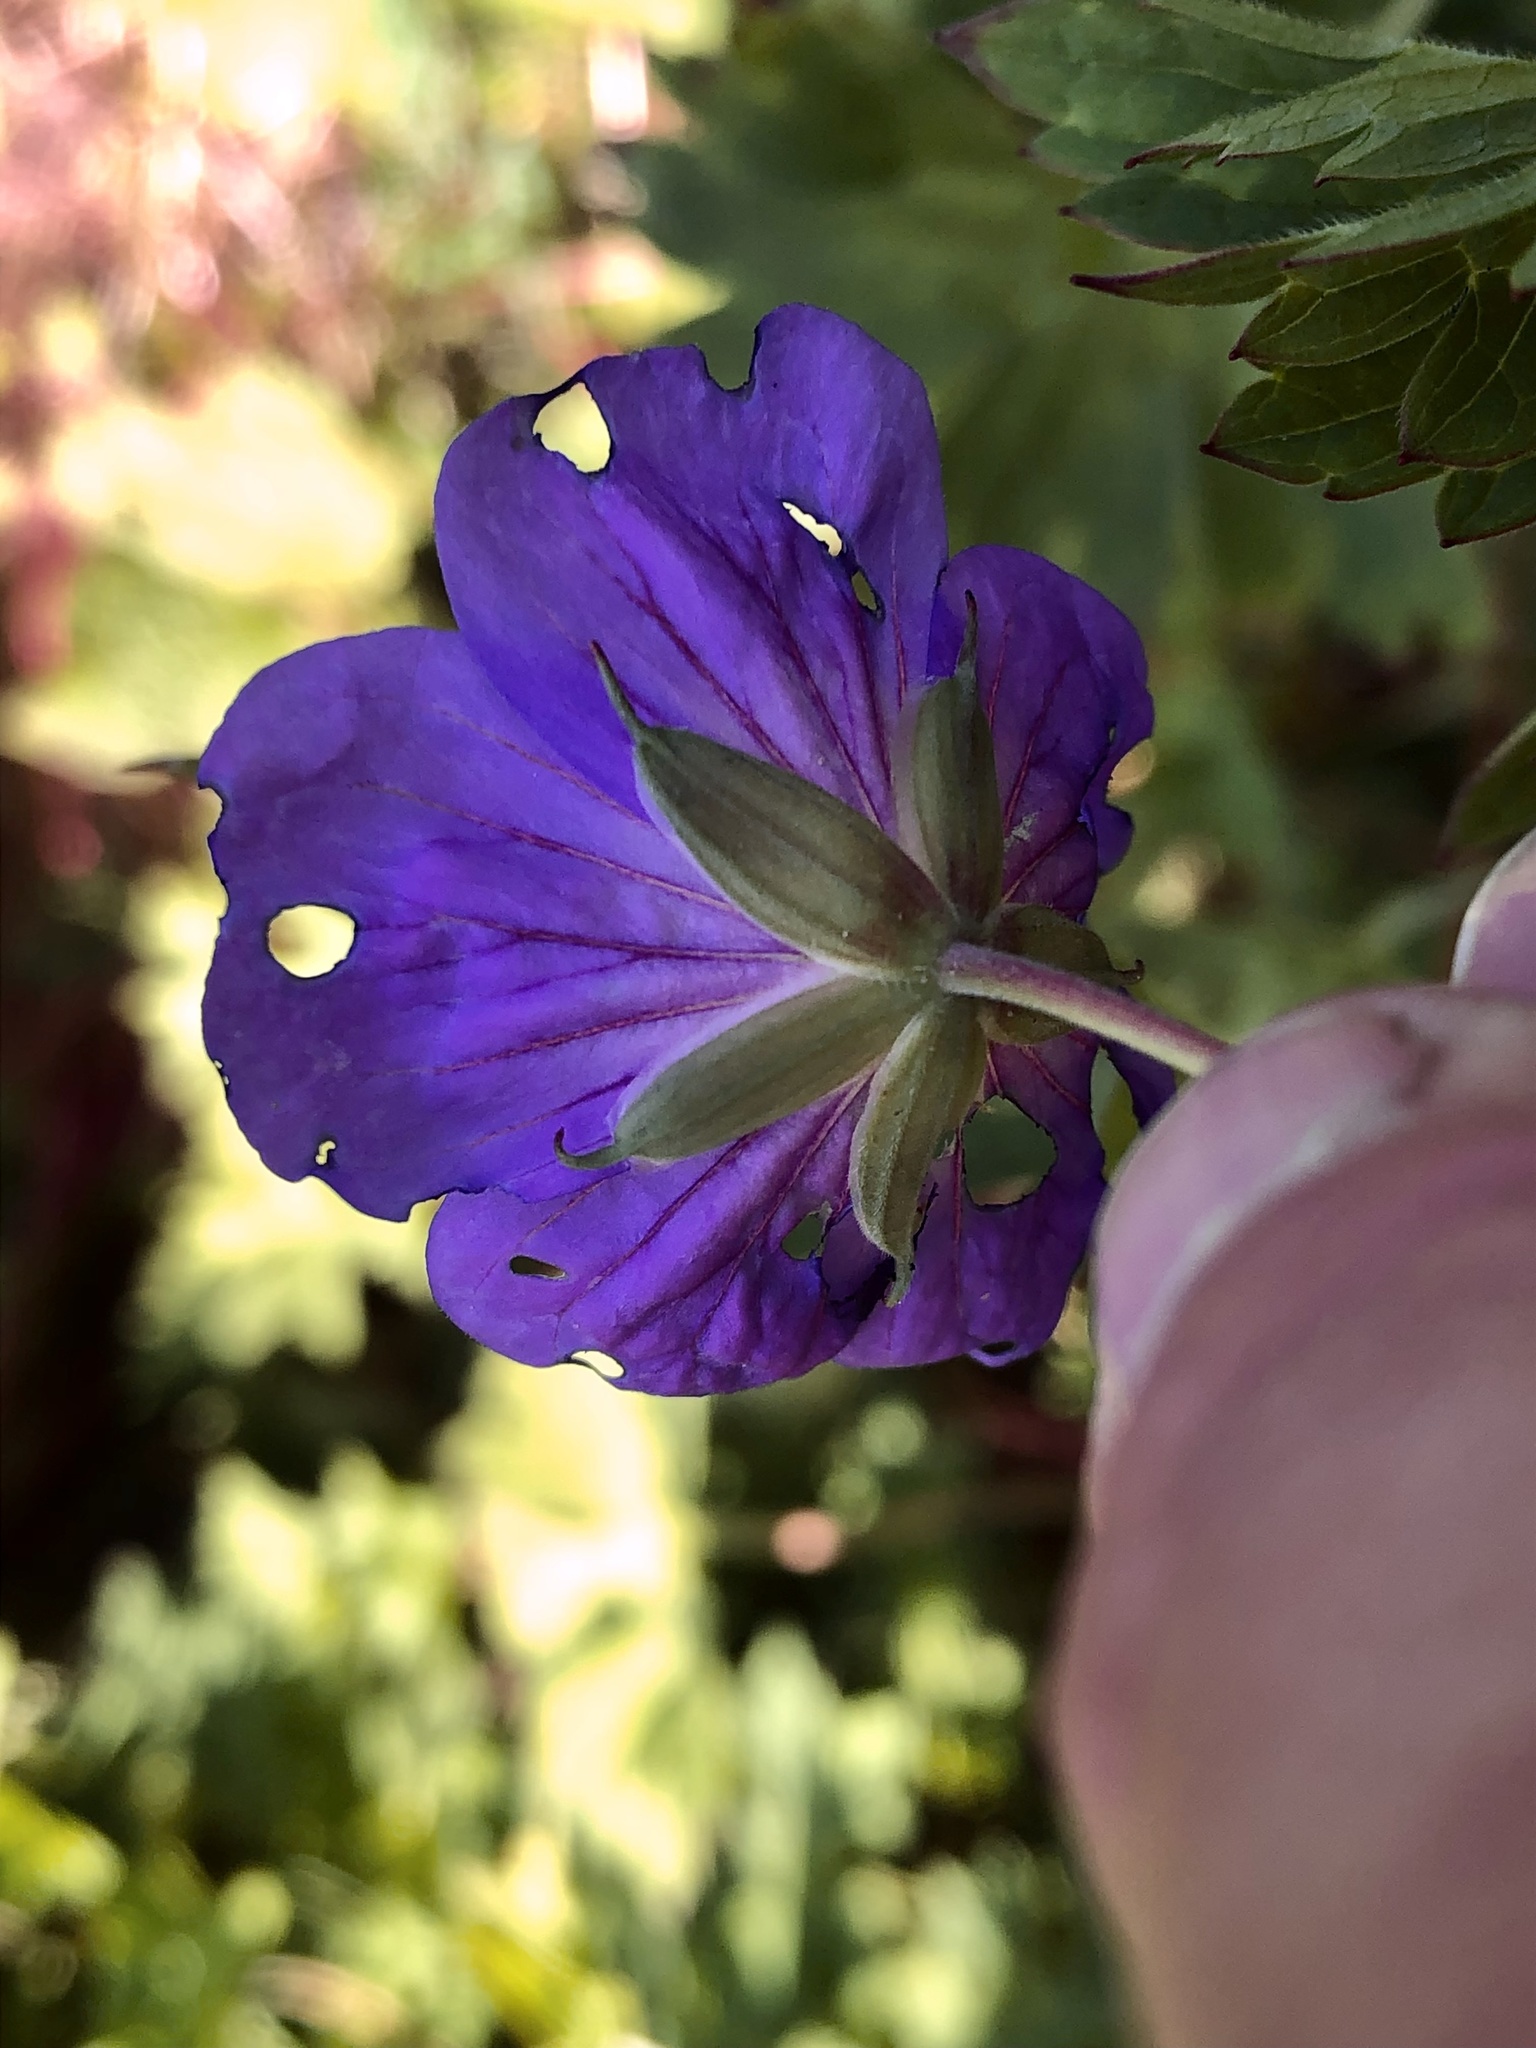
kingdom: Plantae
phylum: Tracheophyta
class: Magnoliopsida
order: Geraniales
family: Geraniaceae
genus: Geranium
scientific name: Geranium sylvaticum
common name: Wood crane's-bill
